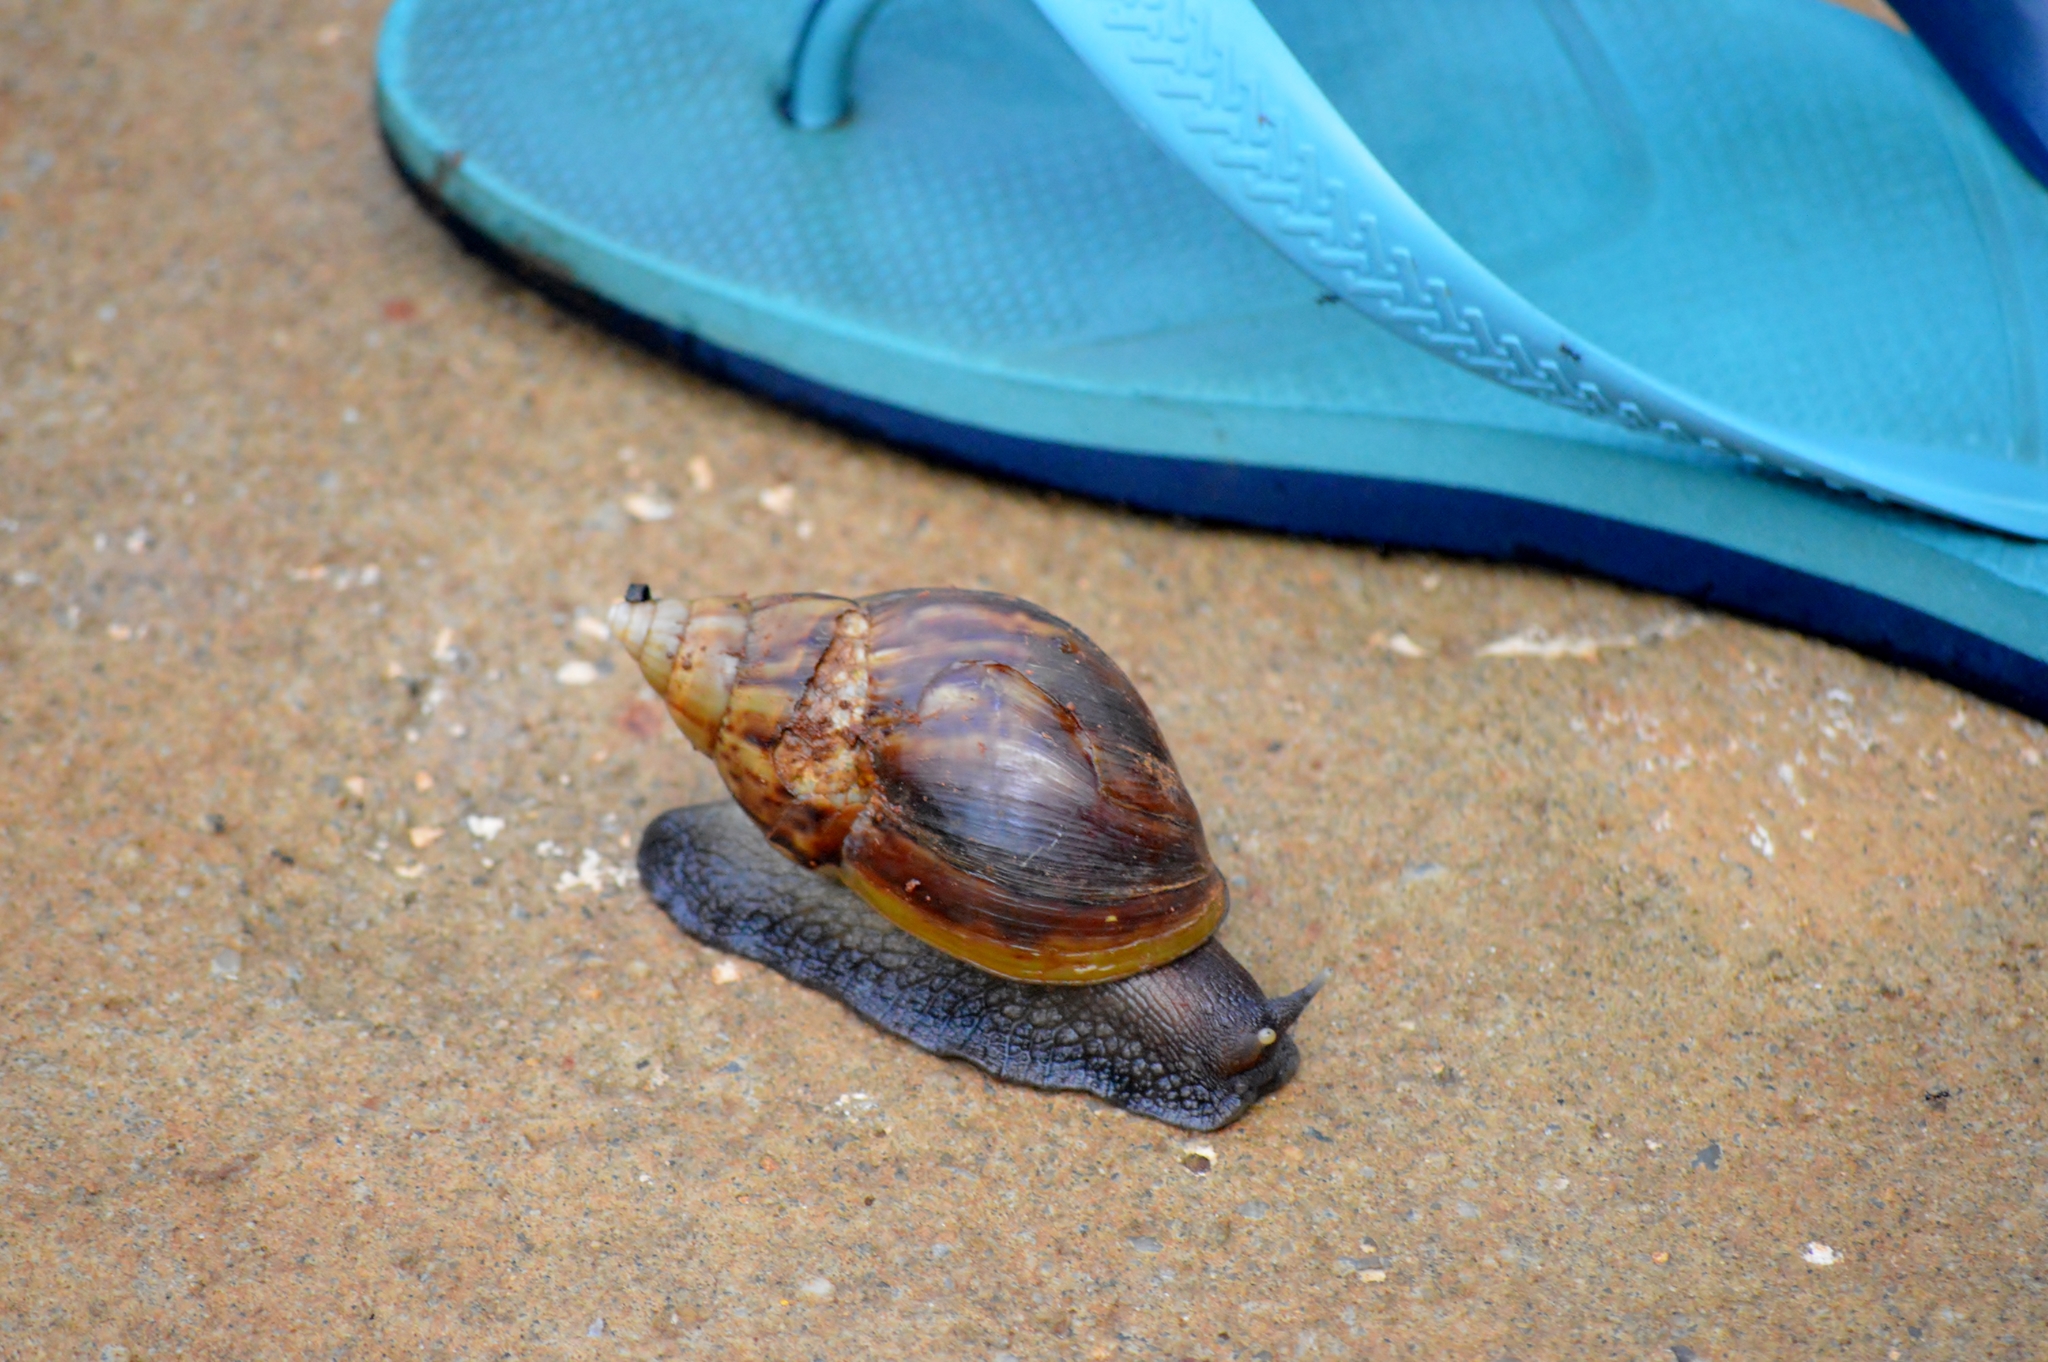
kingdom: Animalia
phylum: Mollusca
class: Gastropoda
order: Stylommatophora
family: Achatinidae
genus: Lissachatina
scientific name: Lissachatina fulica
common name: Giant african snail
